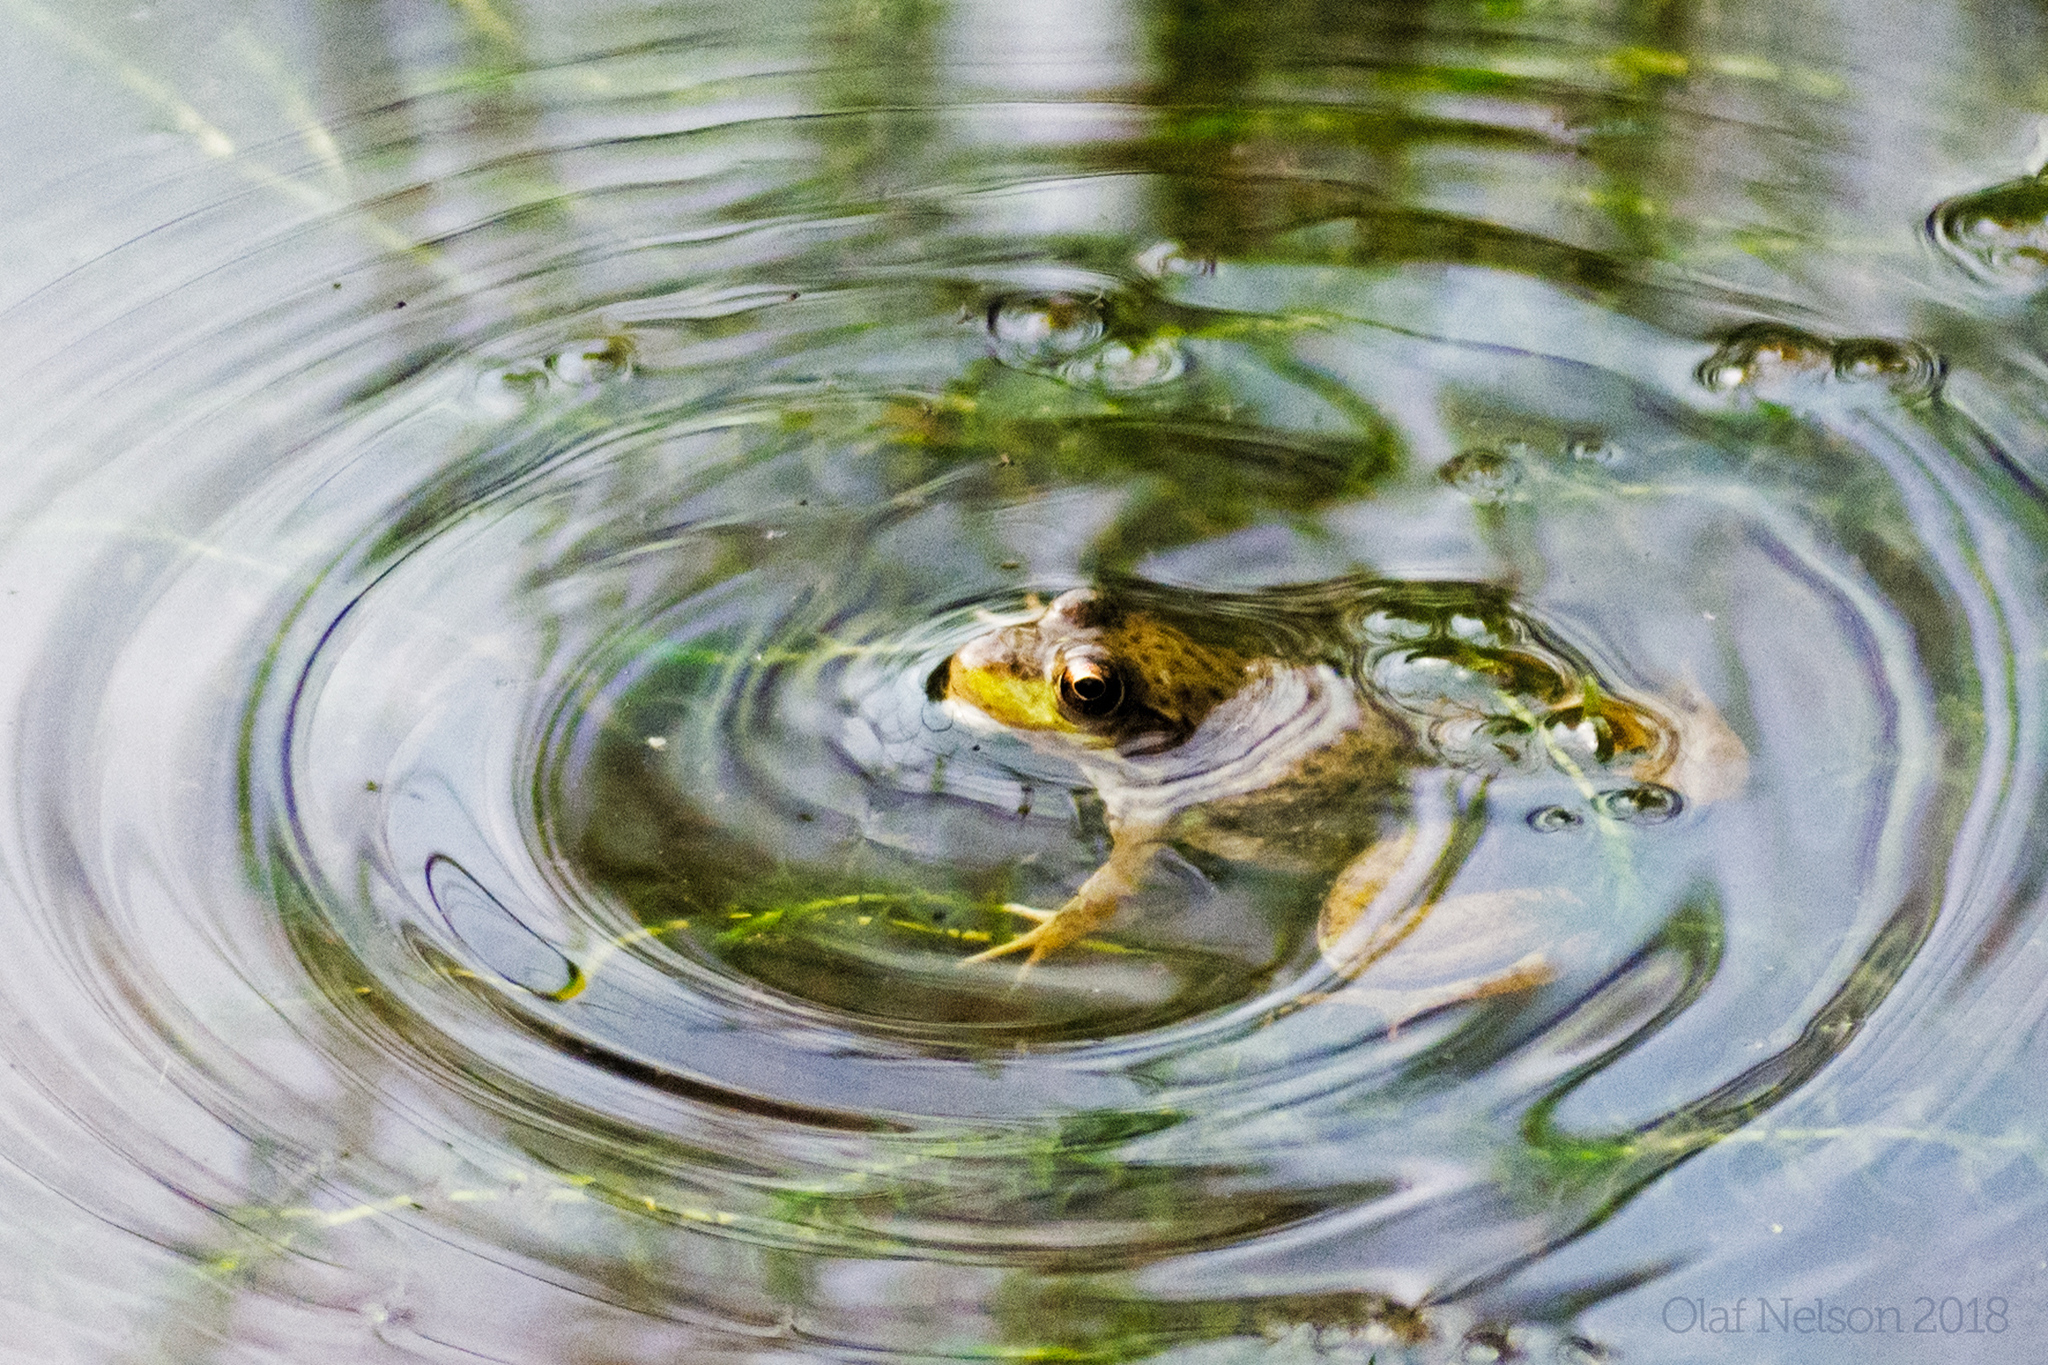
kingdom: Animalia
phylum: Chordata
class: Amphibia
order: Anura
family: Ranidae
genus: Lithobates
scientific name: Lithobates clamitans
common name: Green frog
